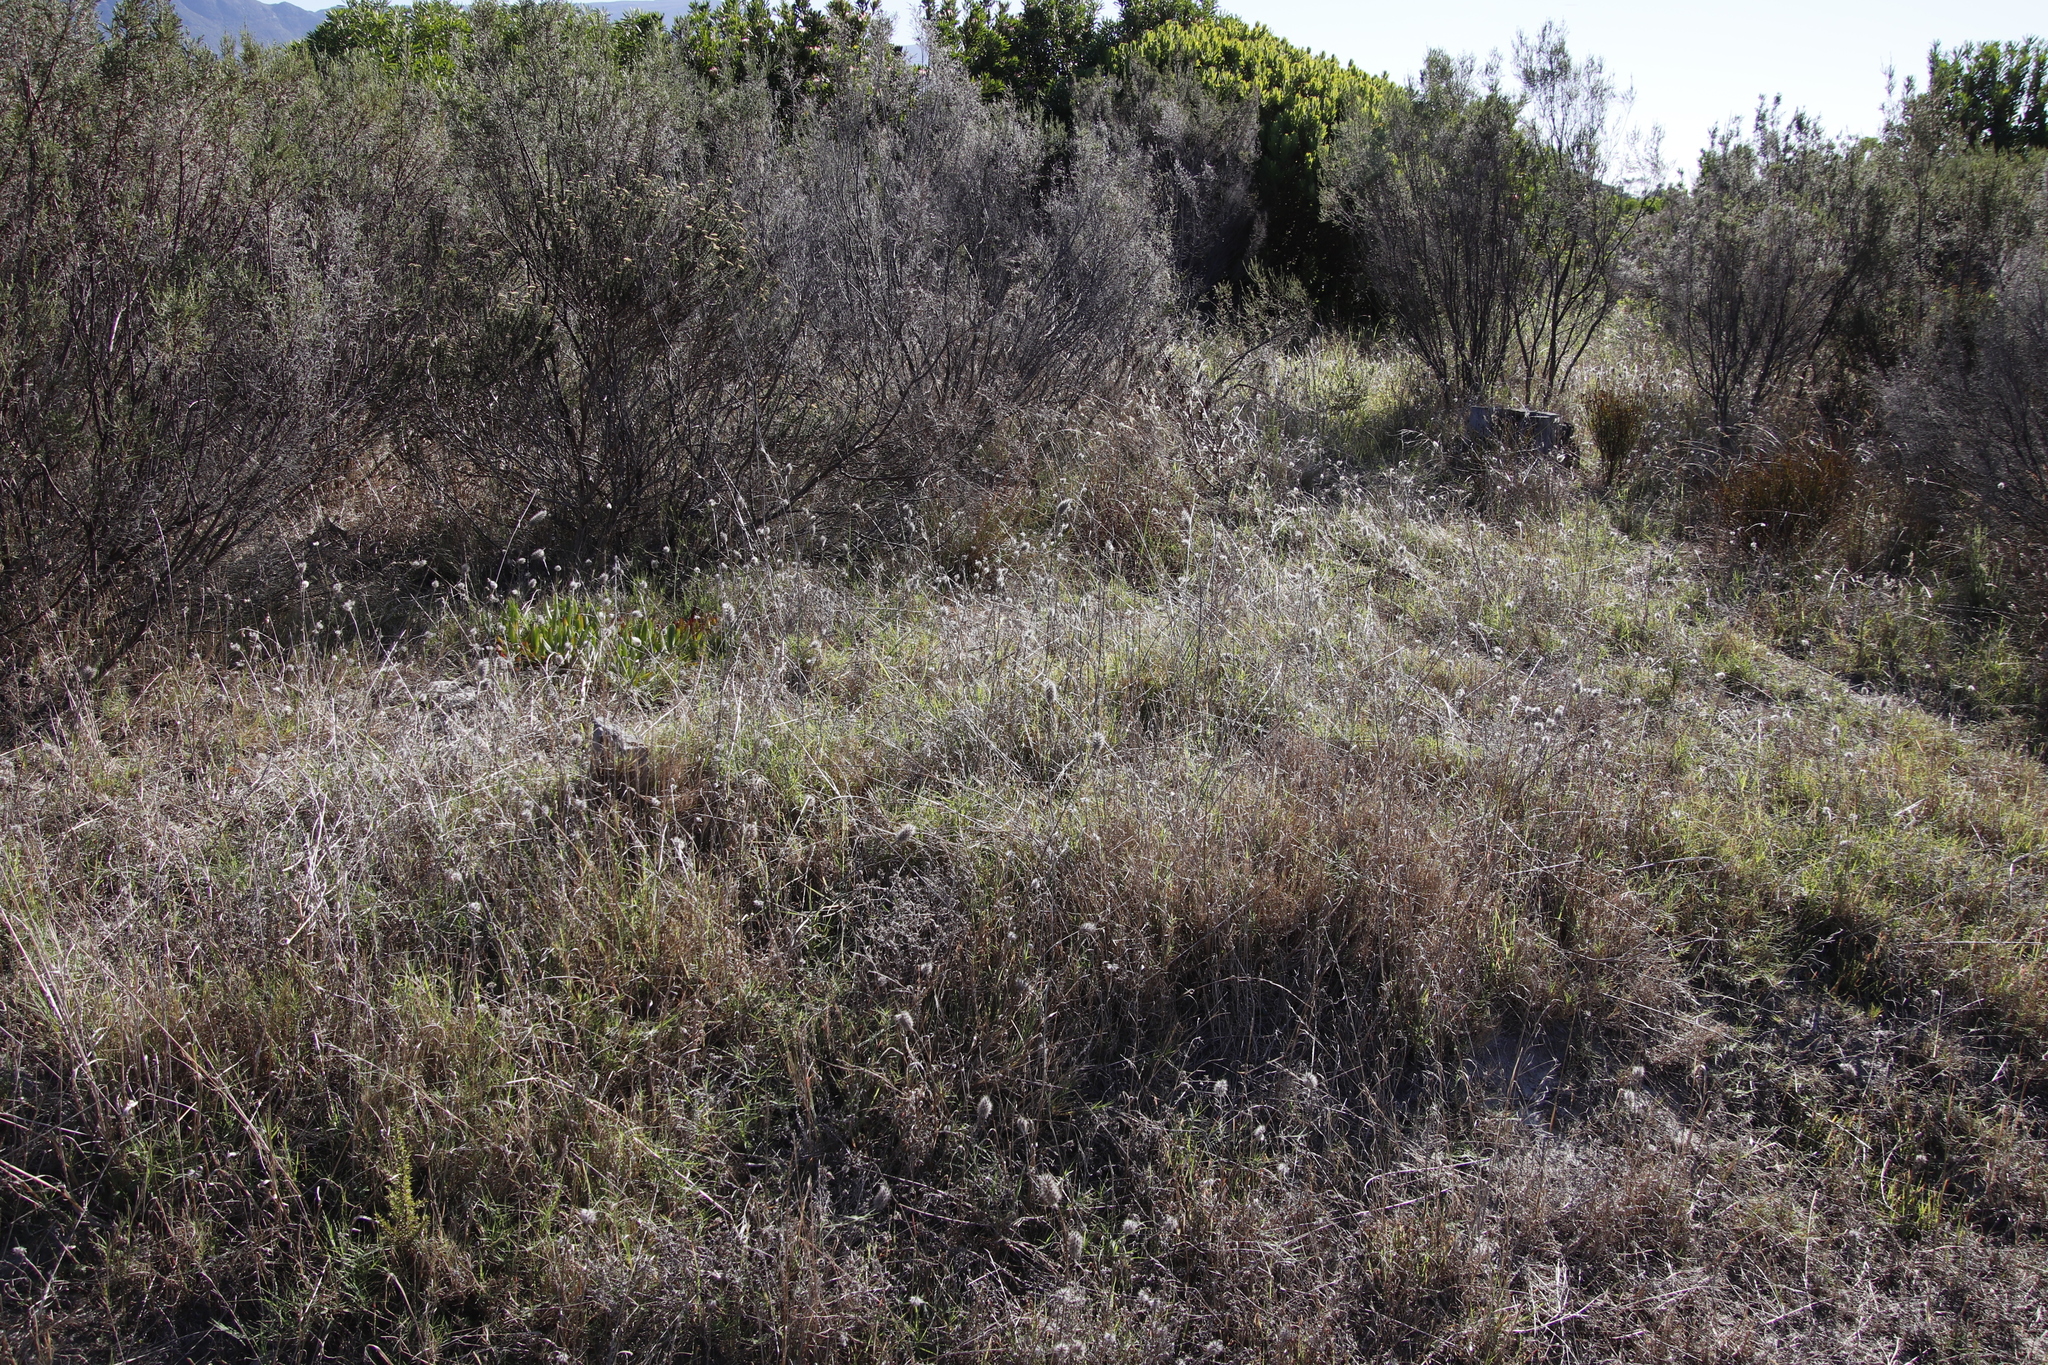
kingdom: Plantae
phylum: Tracheophyta
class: Magnoliopsida
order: Fabales
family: Fabaceae
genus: Trifolium
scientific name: Trifolium angustifolium
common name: Narrow clover
